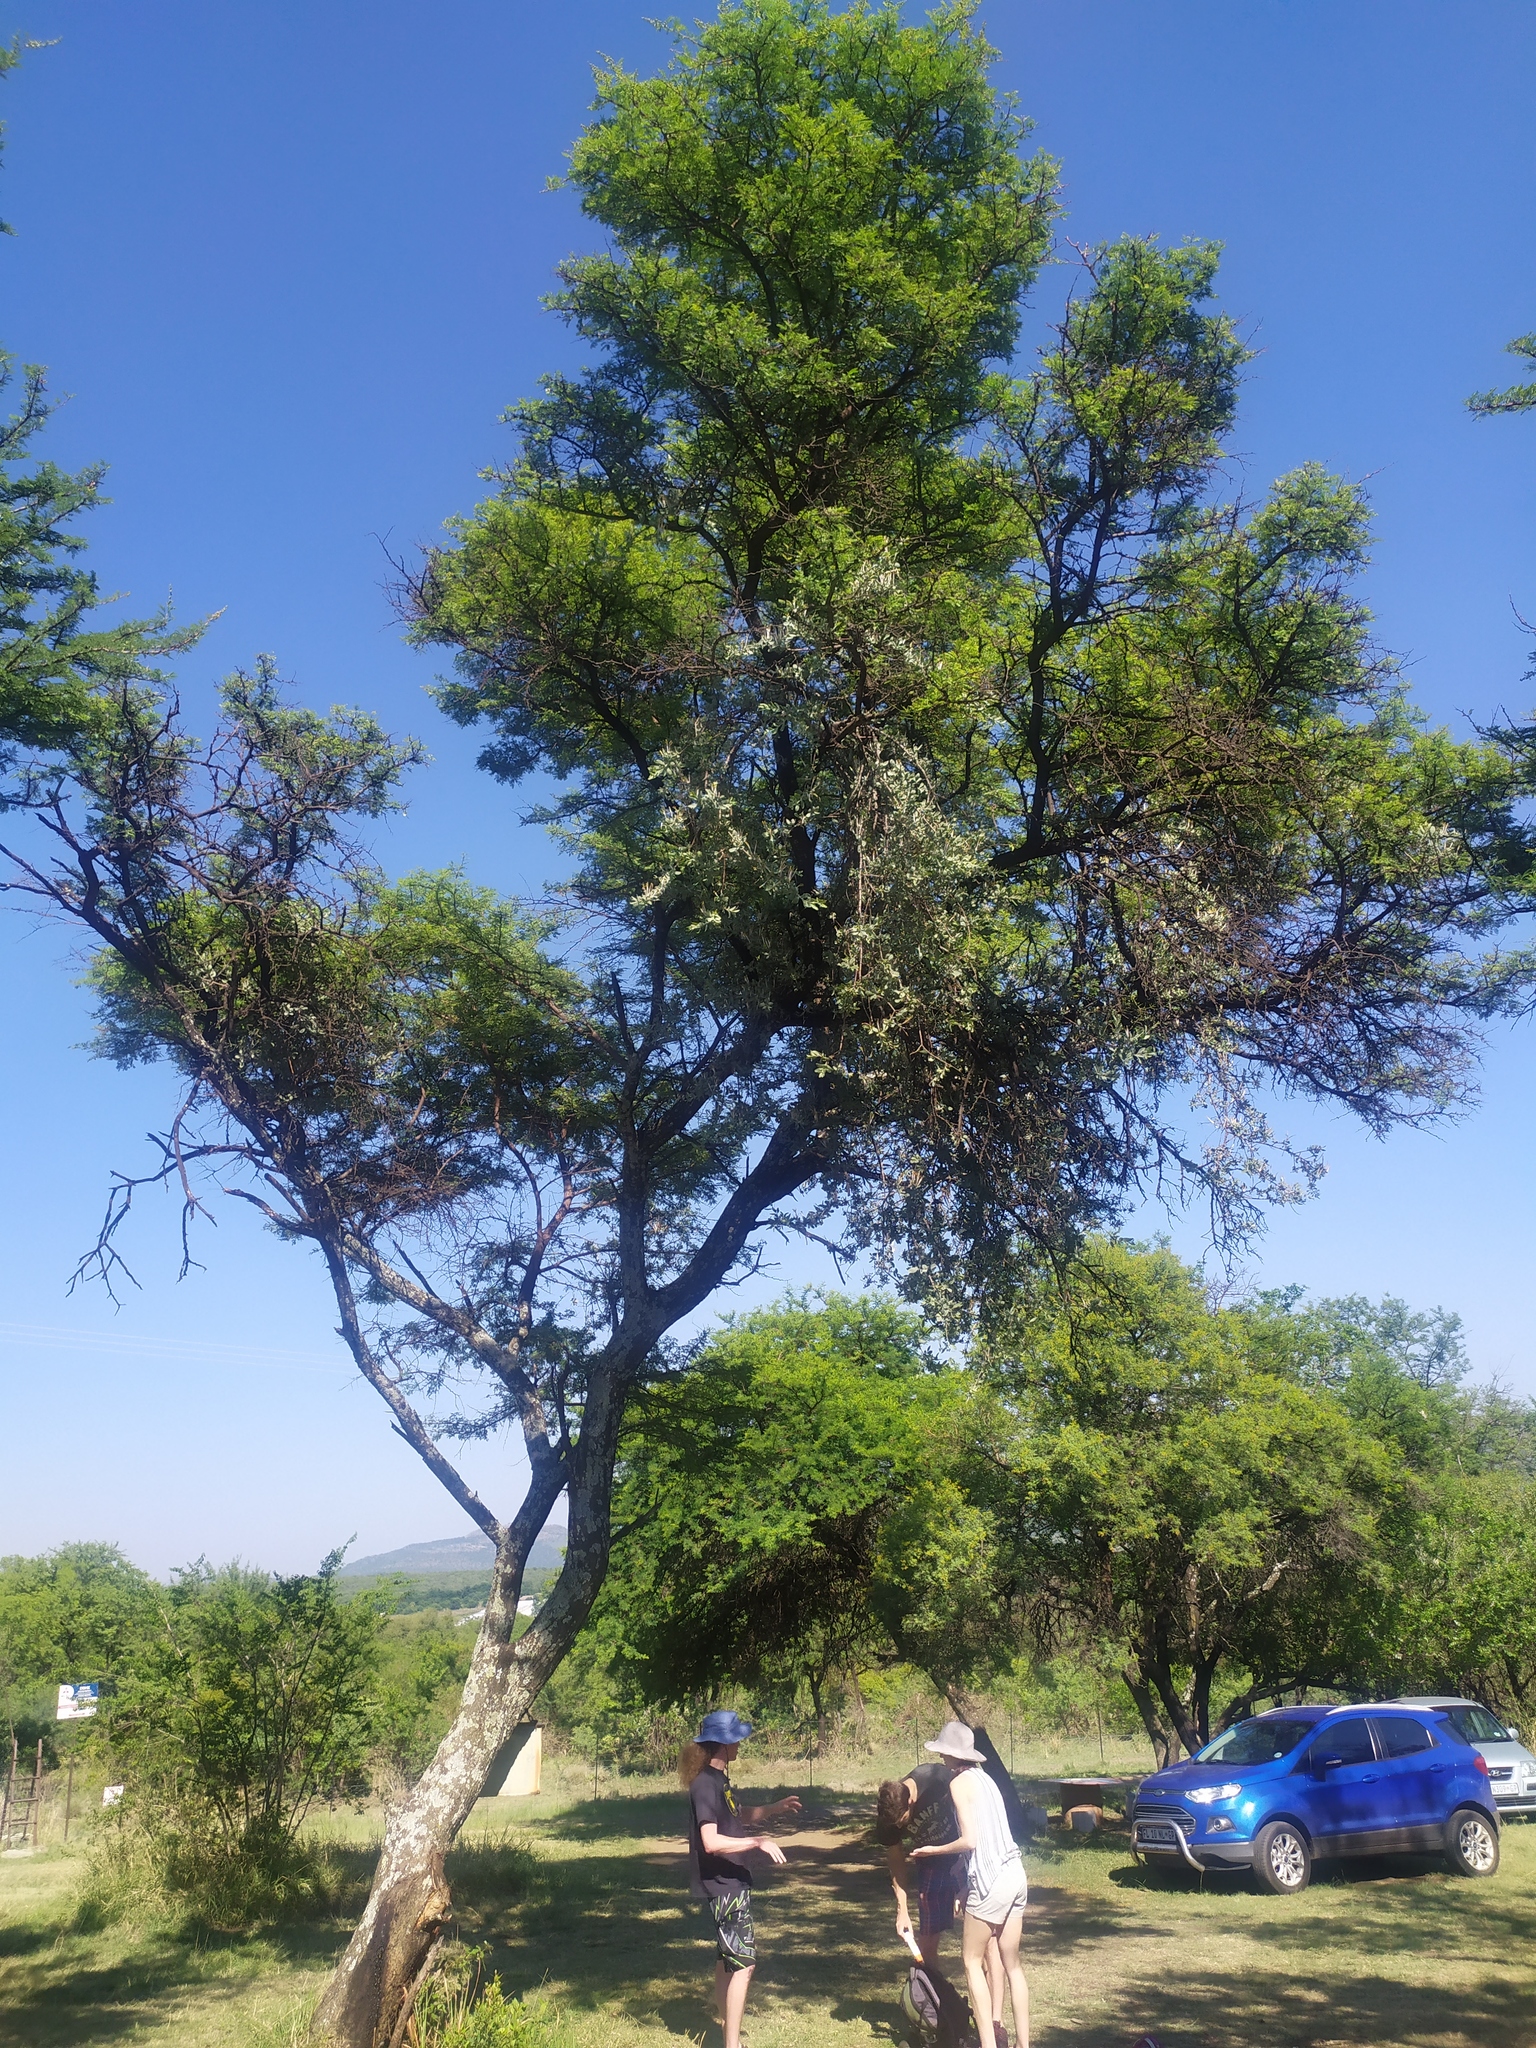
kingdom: Plantae
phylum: Tracheophyta
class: Magnoliopsida
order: Fabales
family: Fabaceae
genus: Vachellia
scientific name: Vachellia karroo
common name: Sweet thorn
